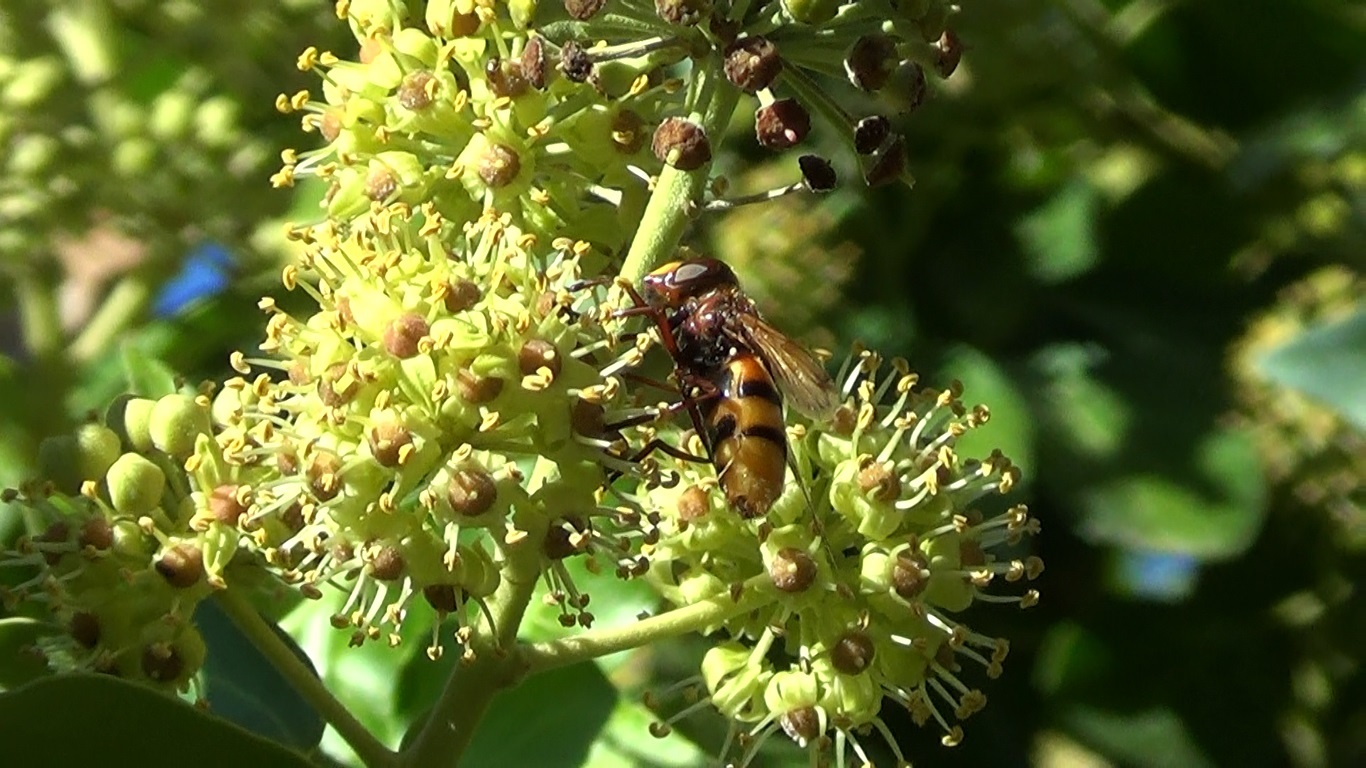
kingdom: Animalia
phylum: Arthropoda
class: Insecta
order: Diptera
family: Syrphidae
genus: Volucella
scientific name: Volucella zonaria
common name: Hornet hoverfly
